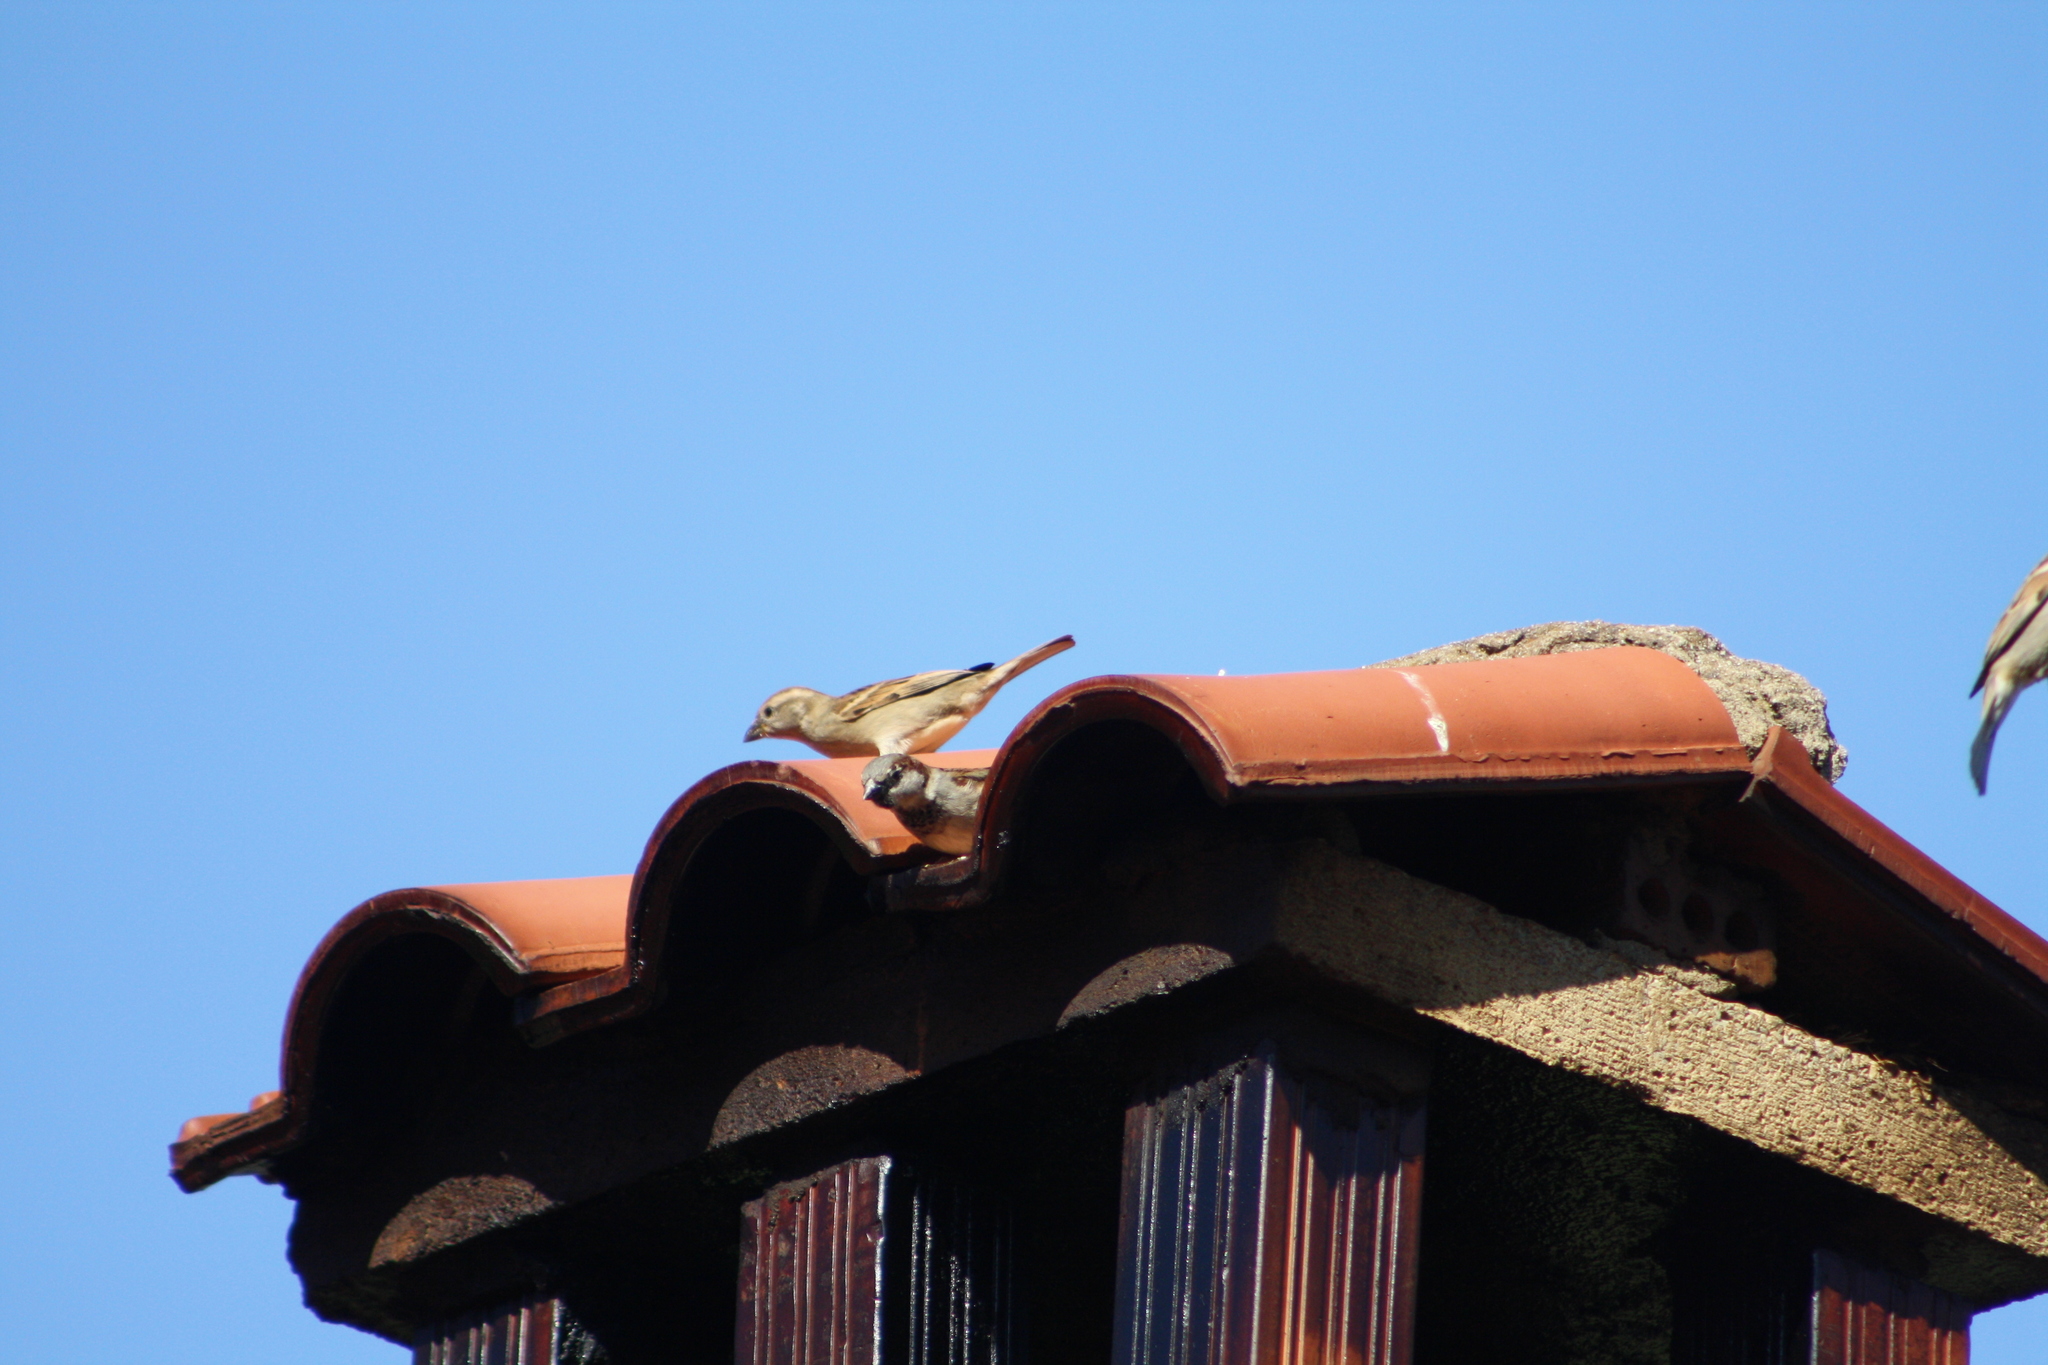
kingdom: Animalia
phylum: Chordata
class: Aves
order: Passeriformes
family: Passeridae
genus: Passer
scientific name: Passer domesticus
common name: House sparrow
